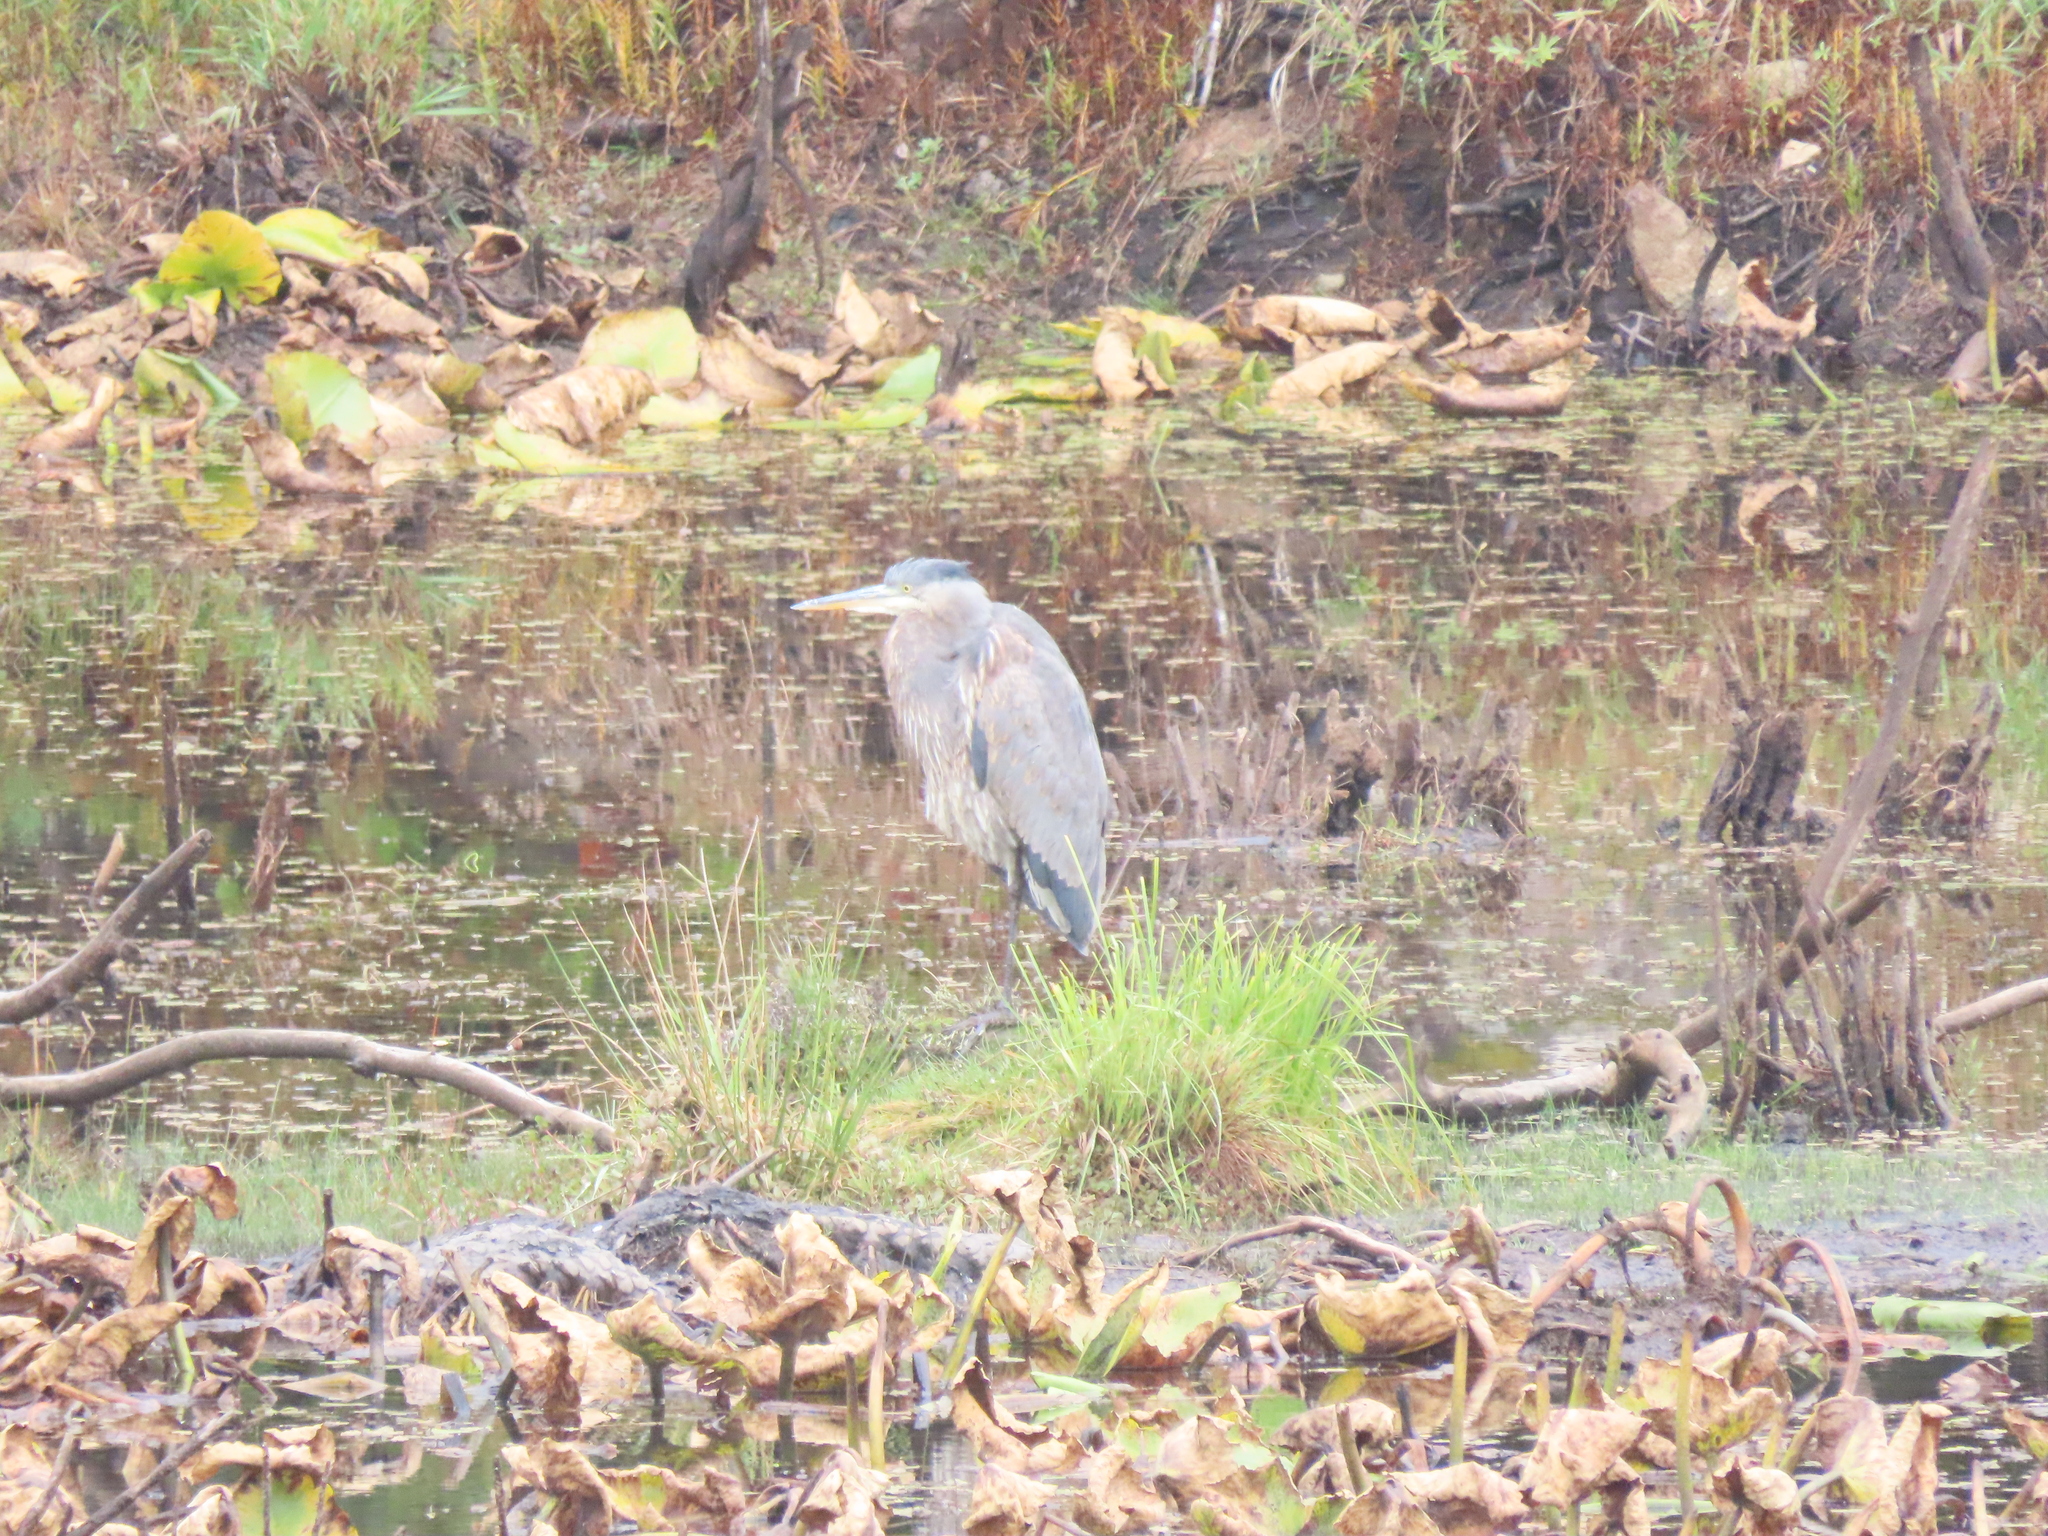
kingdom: Animalia
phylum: Chordata
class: Aves
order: Pelecaniformes
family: Ardeidae
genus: Ardea
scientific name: Ardea herodias
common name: Great blue heron
